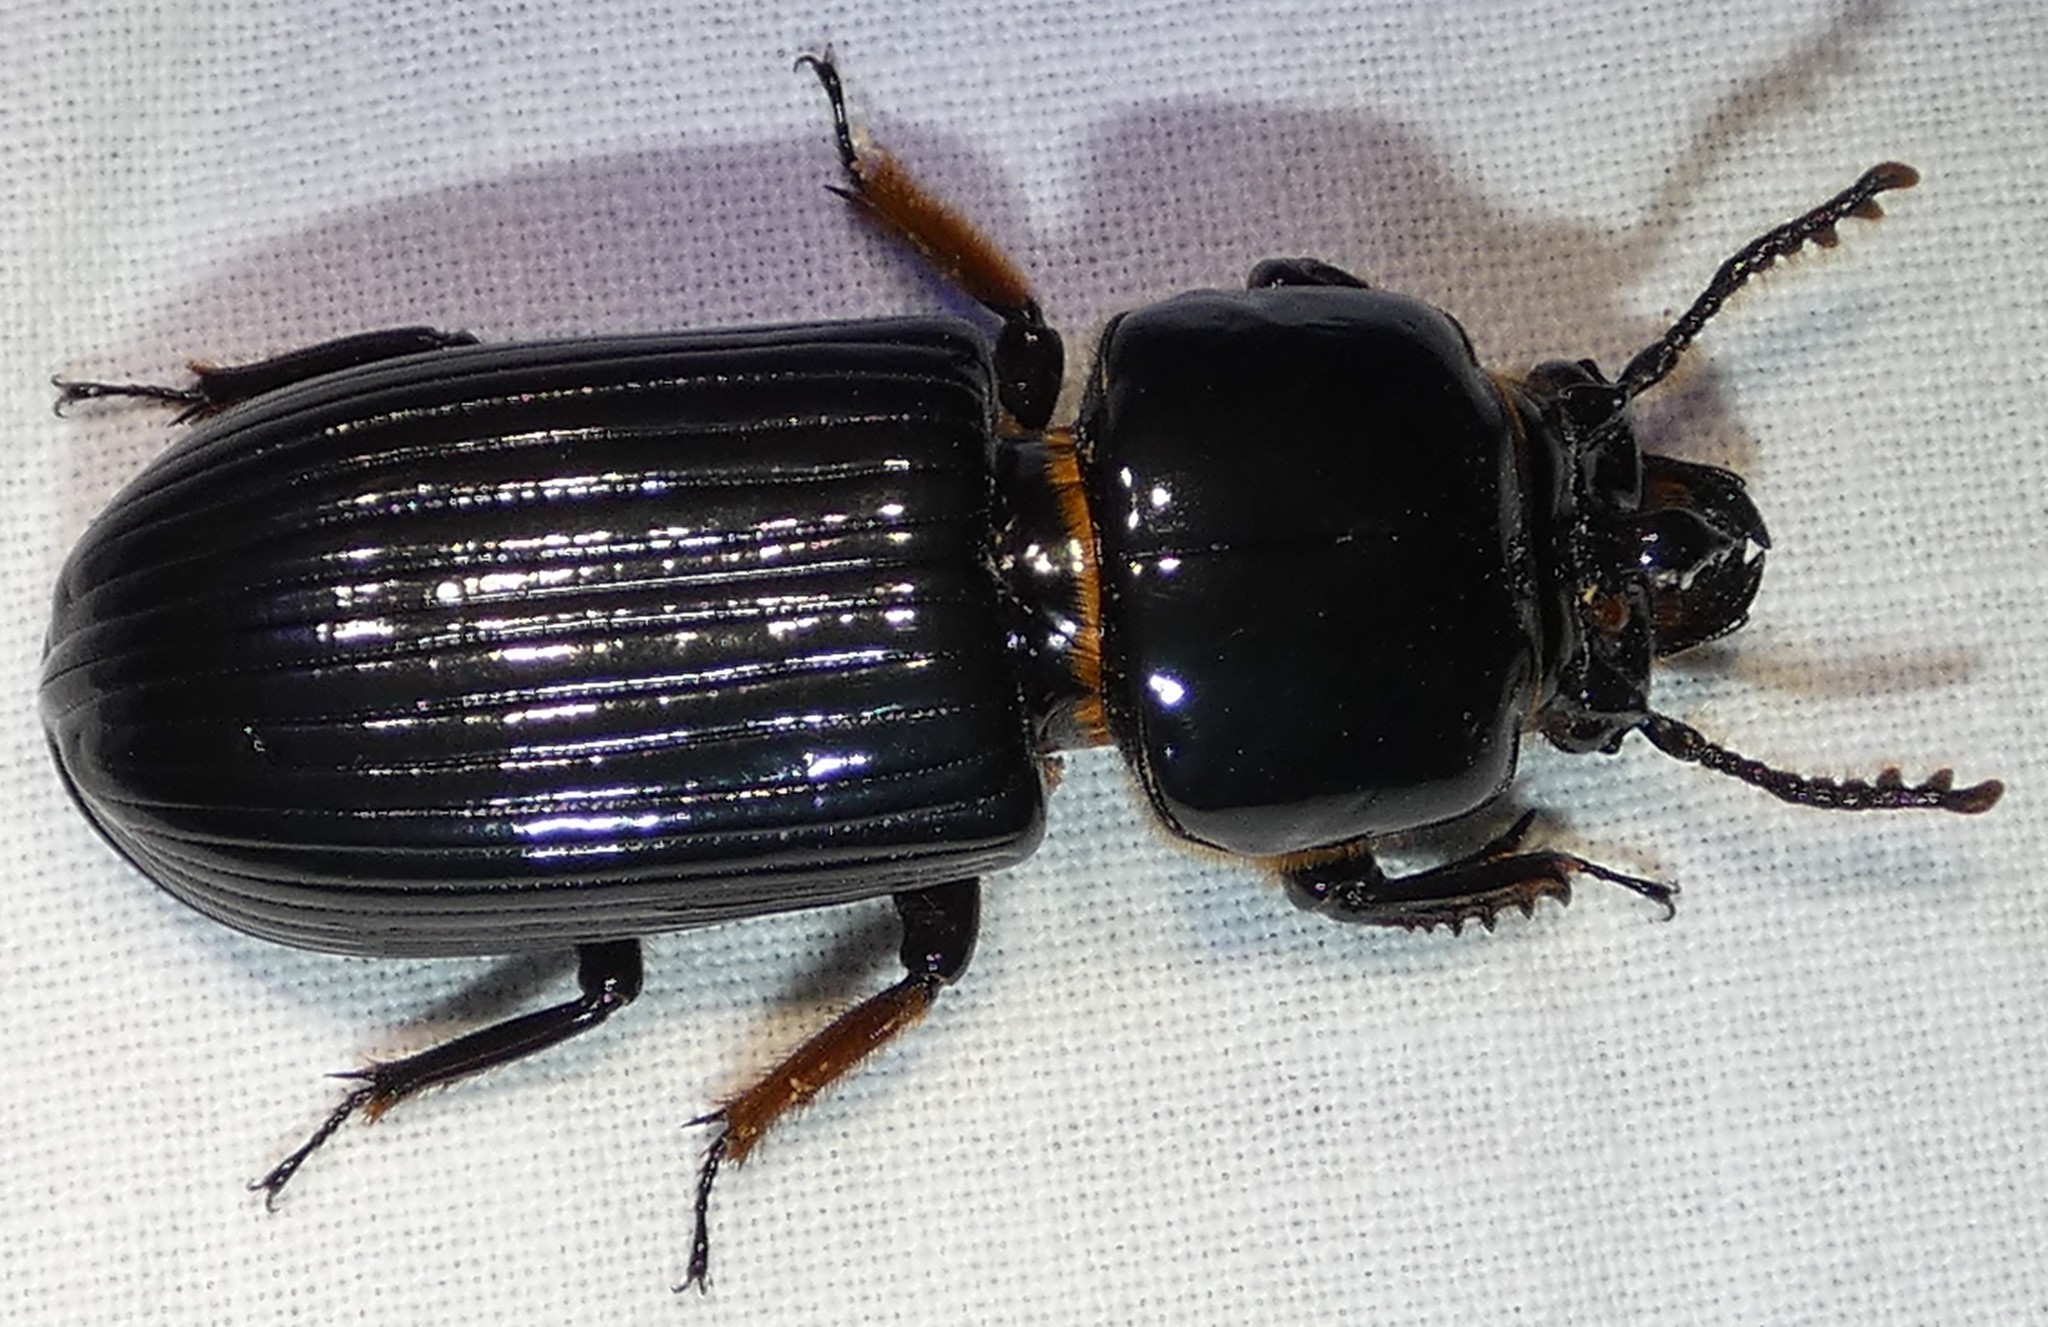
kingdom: Animalia
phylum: Arthropoda
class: Insecta
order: Coleoptera
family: Passalidae
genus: Odontotaenius
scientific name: Odontotaenius disjunctus
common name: Patent leather beetle
